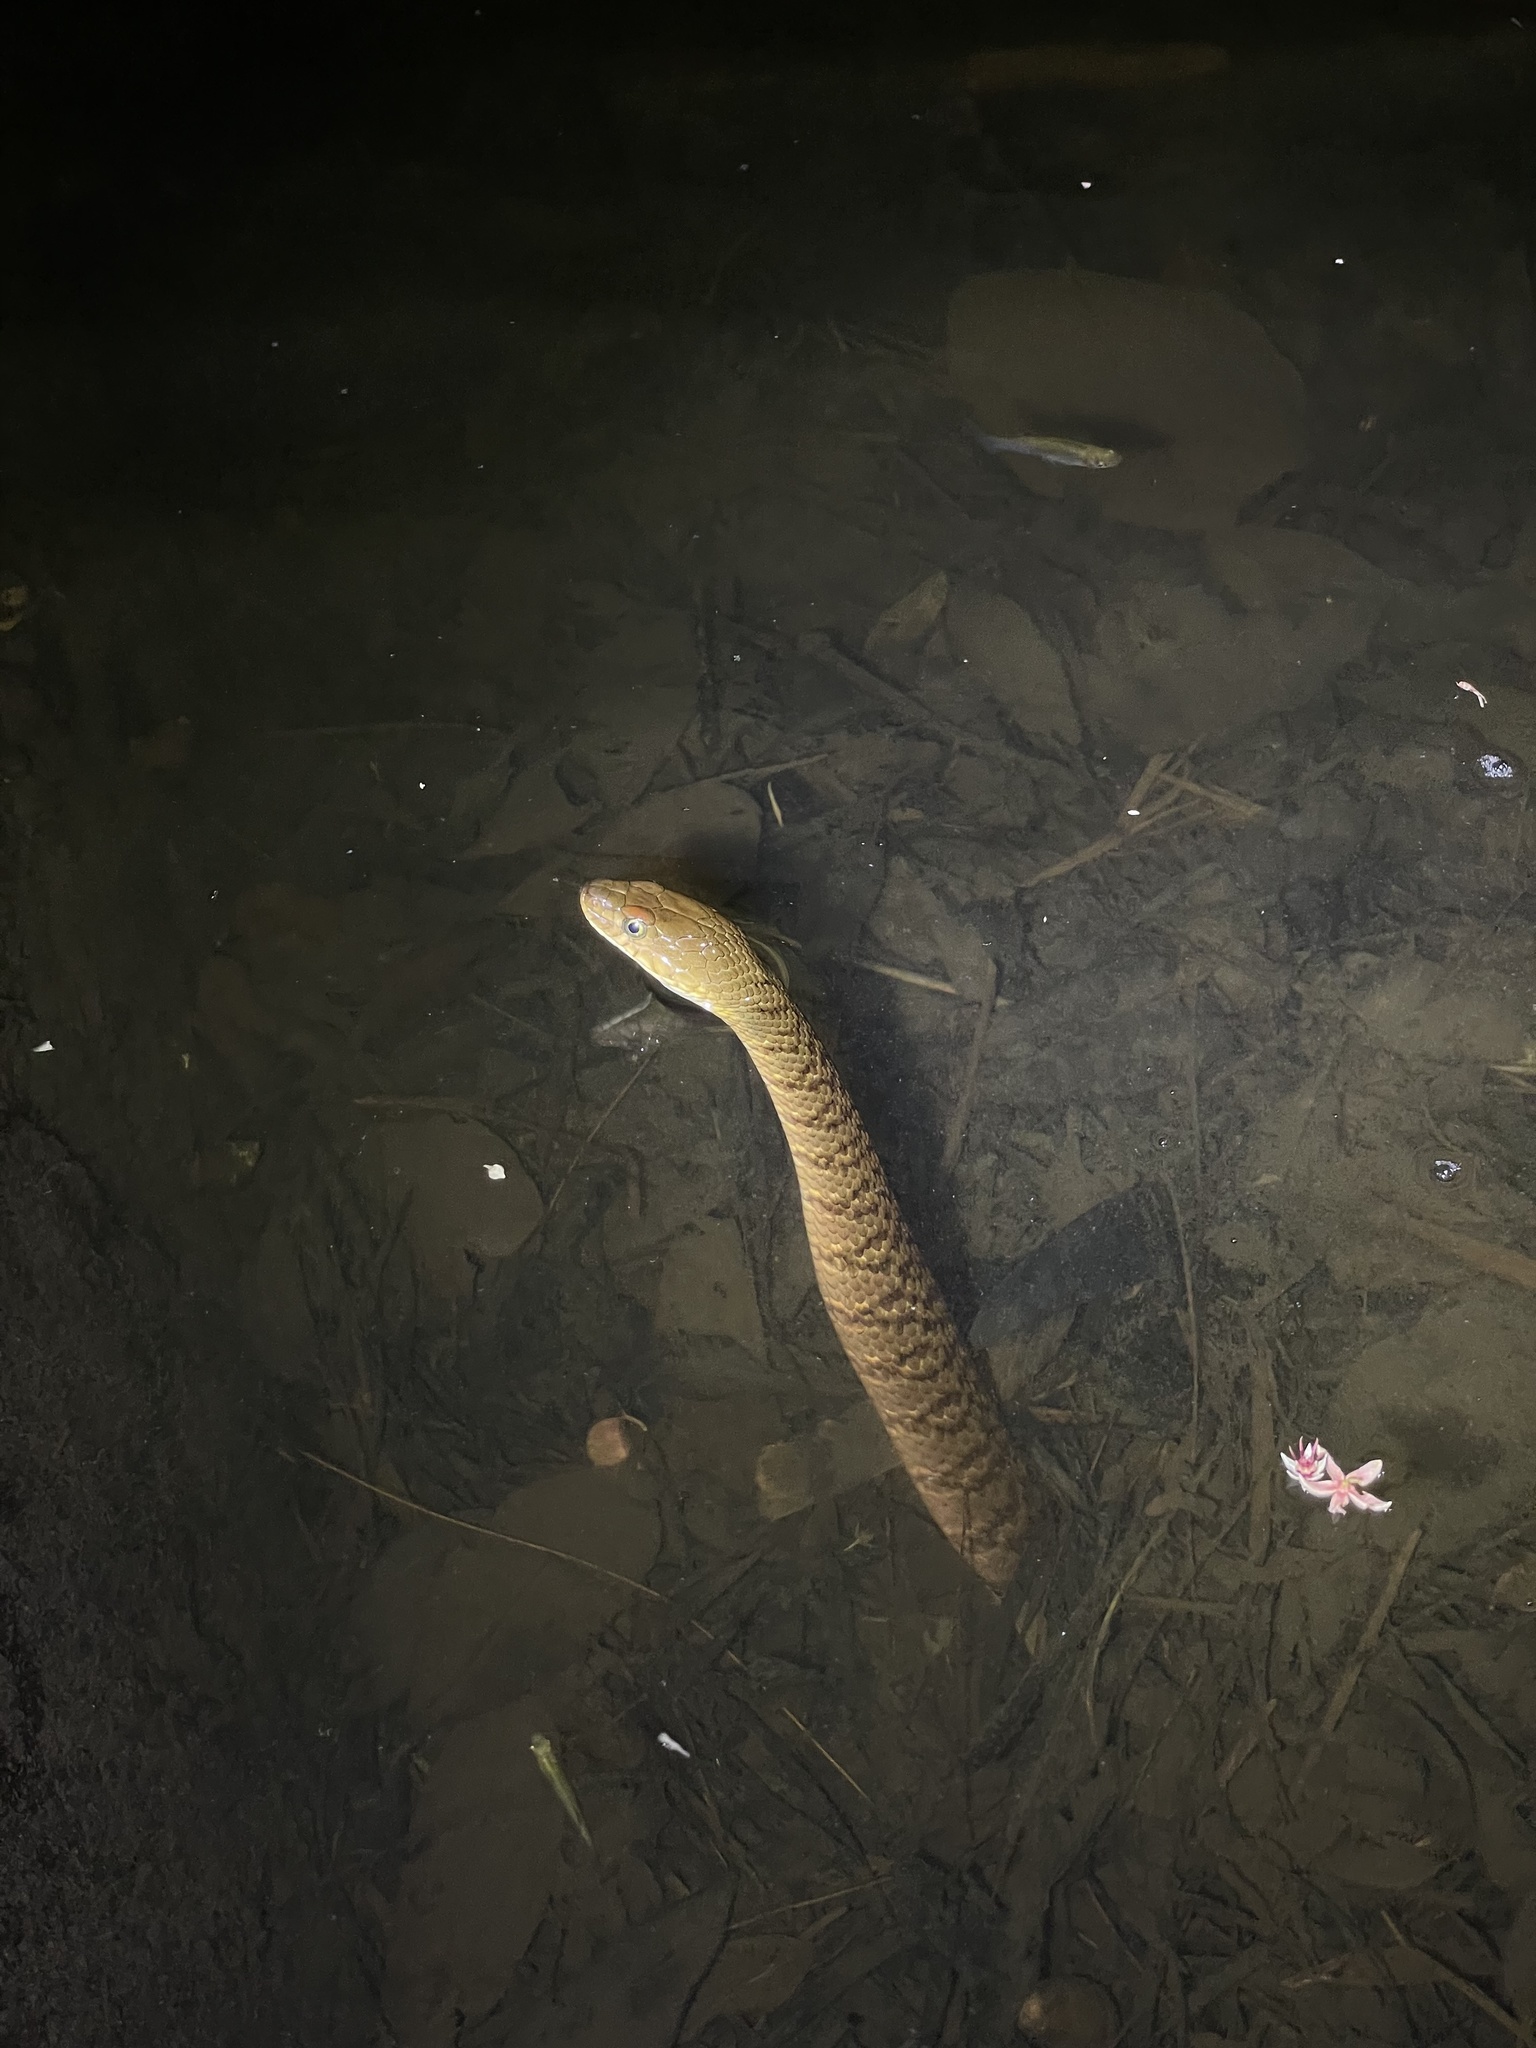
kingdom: Animalia
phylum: Chordata
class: Squamata
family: Colubridae
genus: Trimerodytes
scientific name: Trimerodytes percarinatus
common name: Eastern water snake
